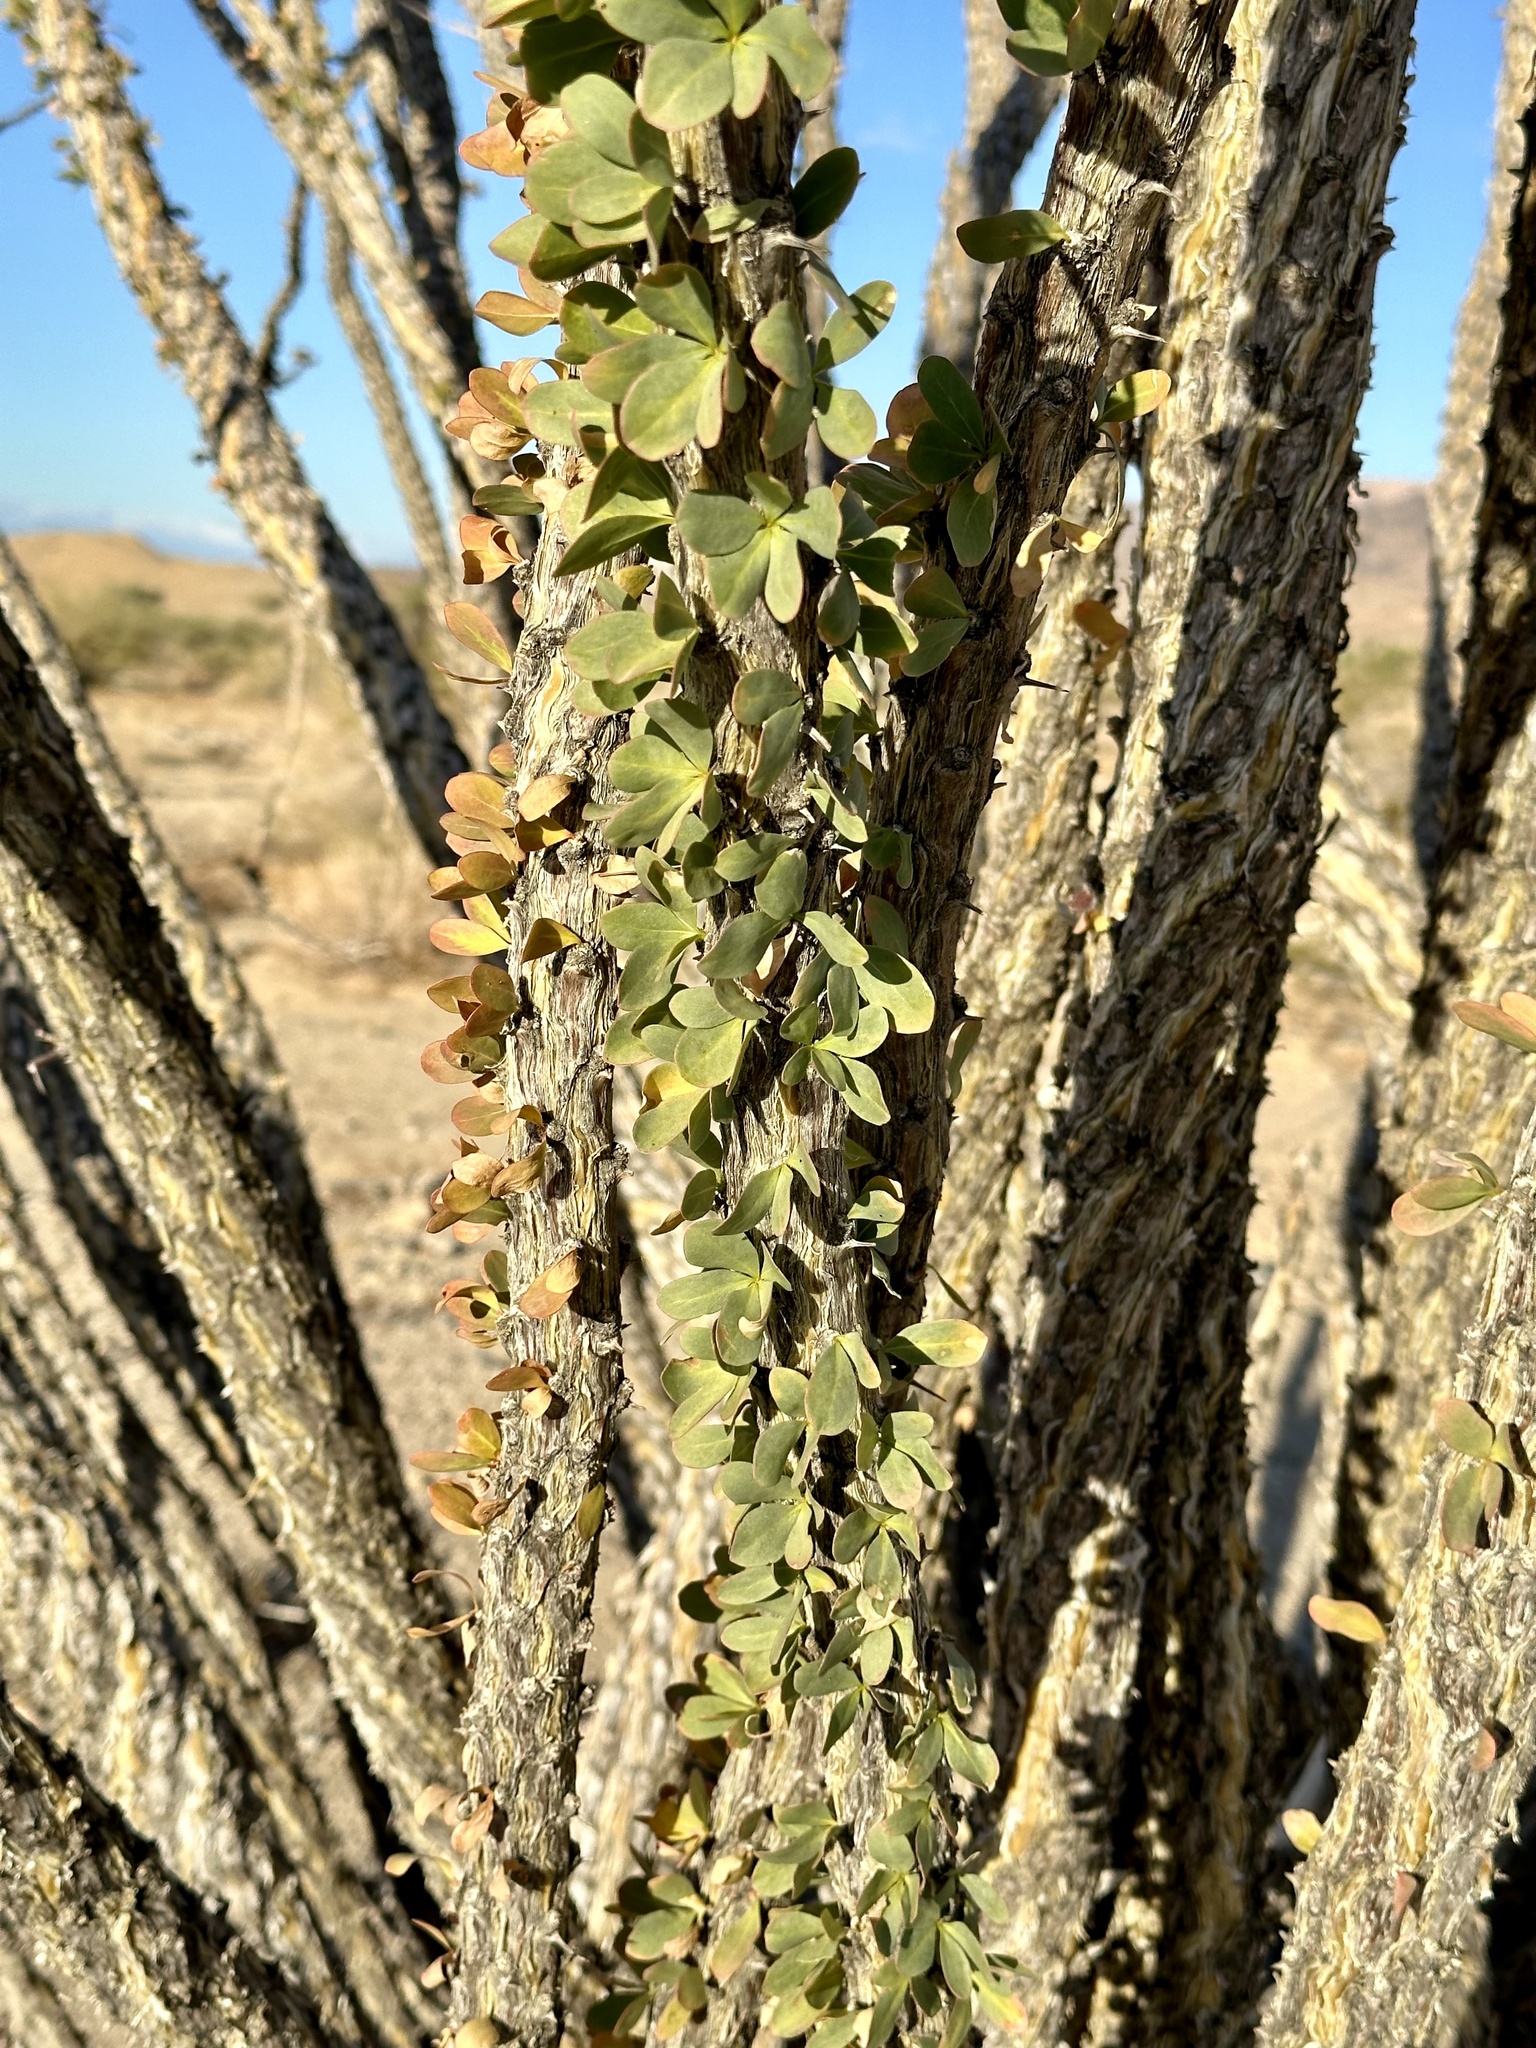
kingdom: Plantae
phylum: Tracheophyta
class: Magnoliopsida
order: Ericales
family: Fouquieriaceae
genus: Fouquieria
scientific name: Fouquieria splendens
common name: Vine-cactus
